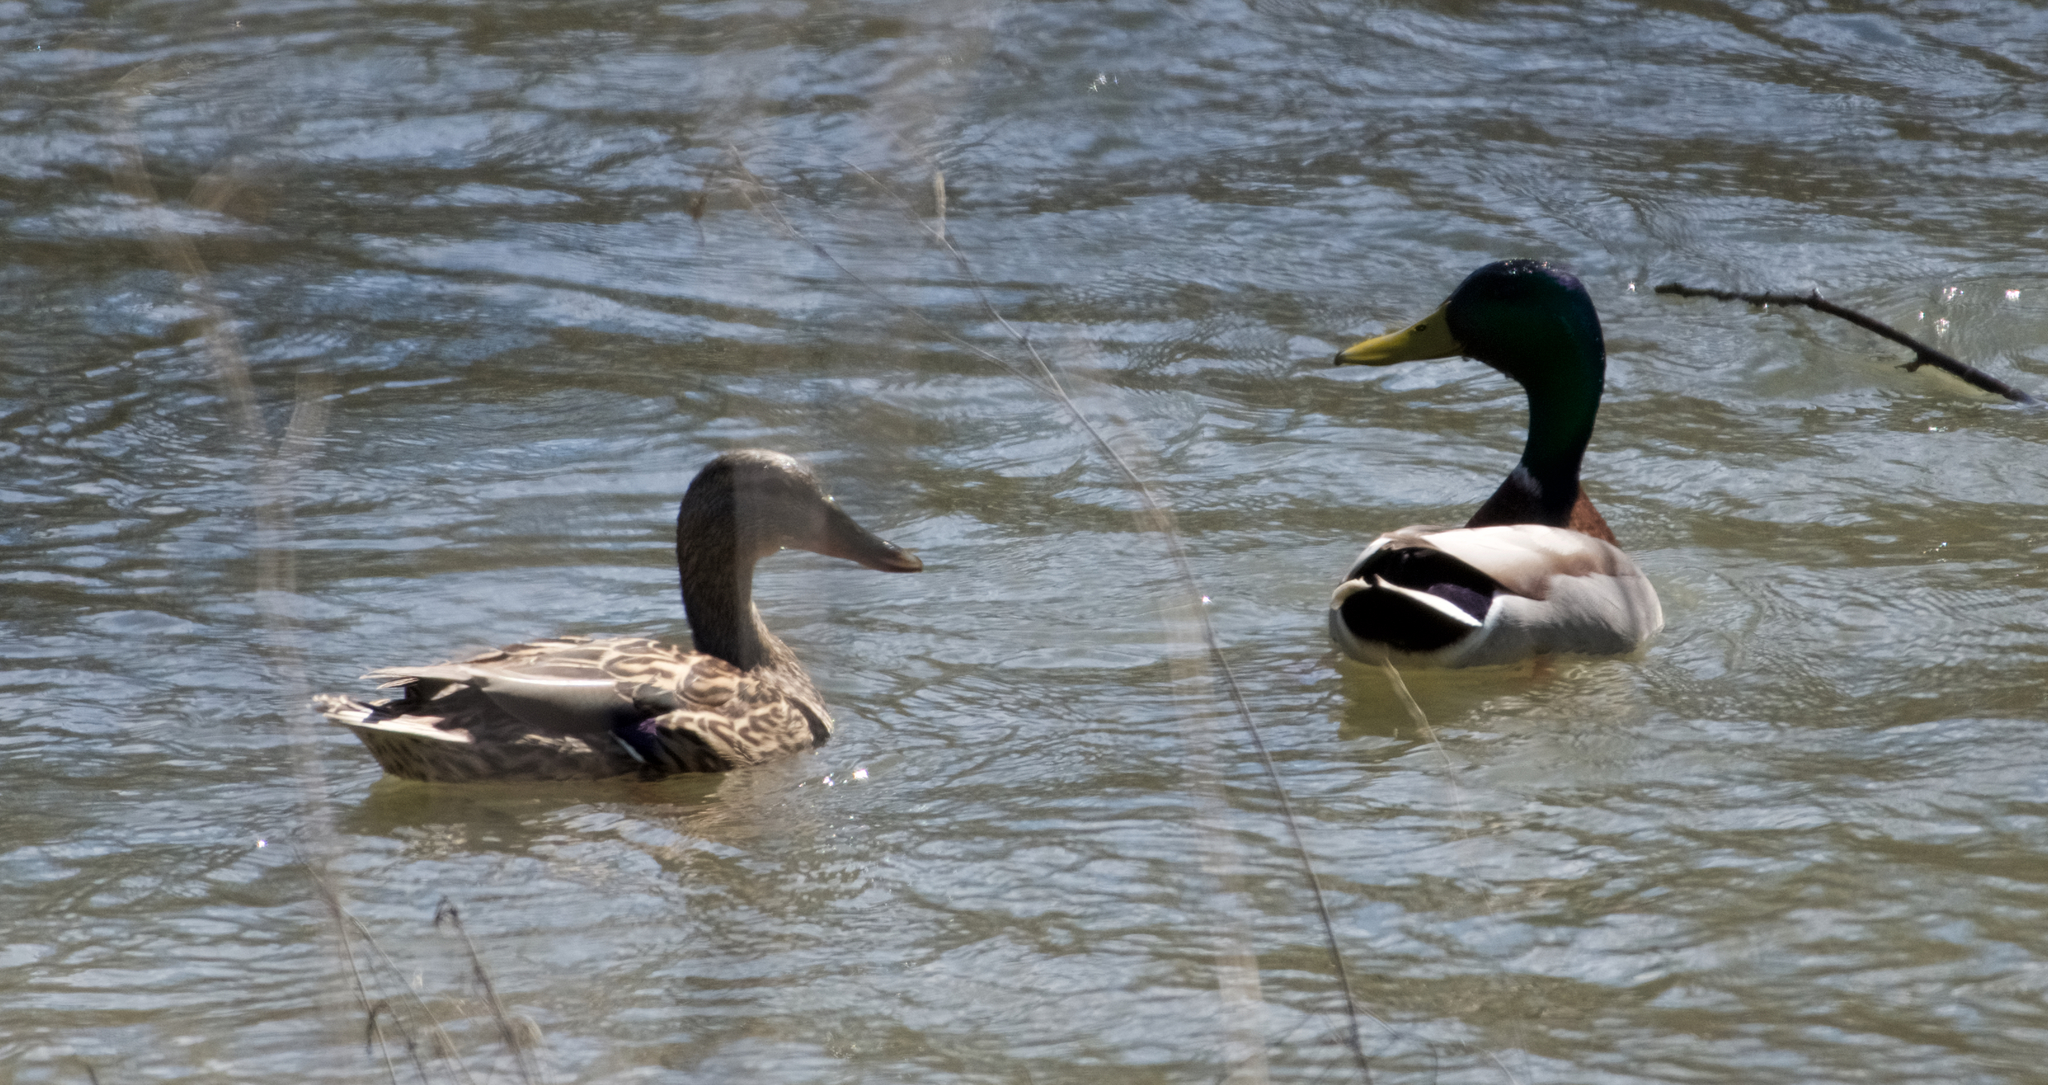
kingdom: Animalia
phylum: Chordata
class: Aves
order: Anseriformes
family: Anatidae
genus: Anas
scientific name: Anas platyrhynchos
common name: Mallard
